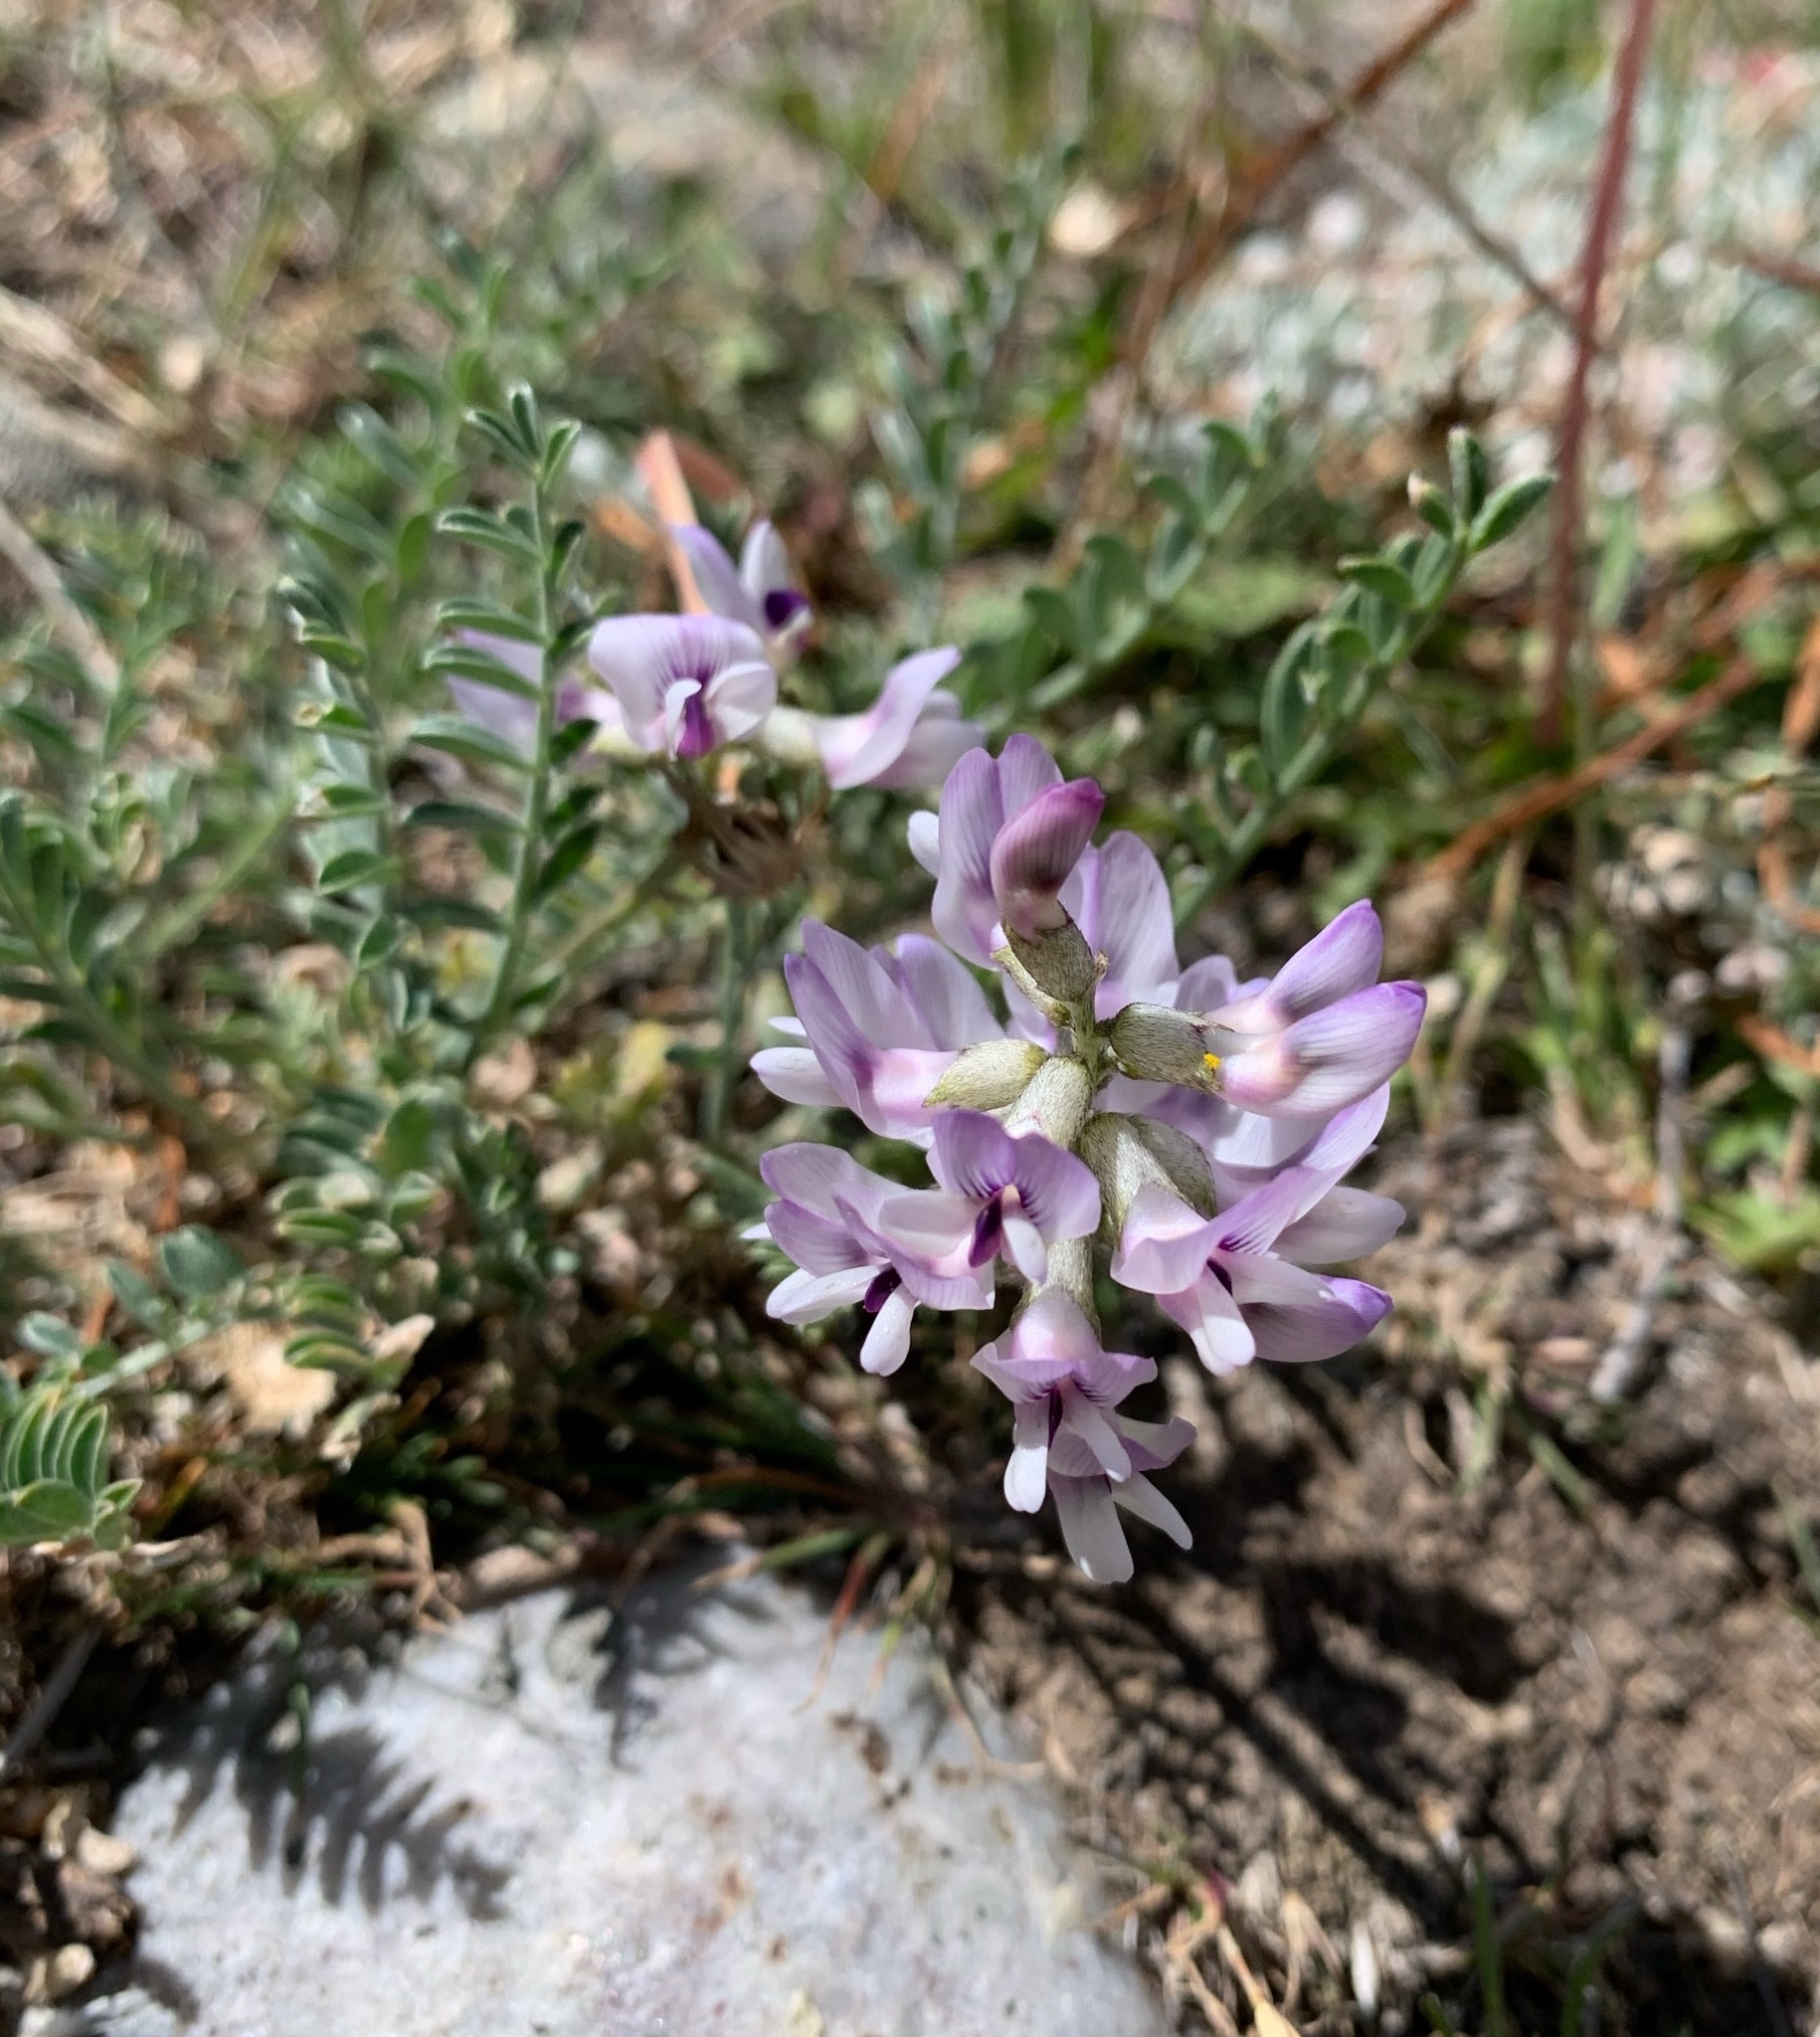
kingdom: Plantae
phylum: Tracheophyta
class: Magnoliopsida
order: Fabales
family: Fabaceae
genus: Astragalus
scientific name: Astragalus alpinus
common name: Alpine milk-vetch
